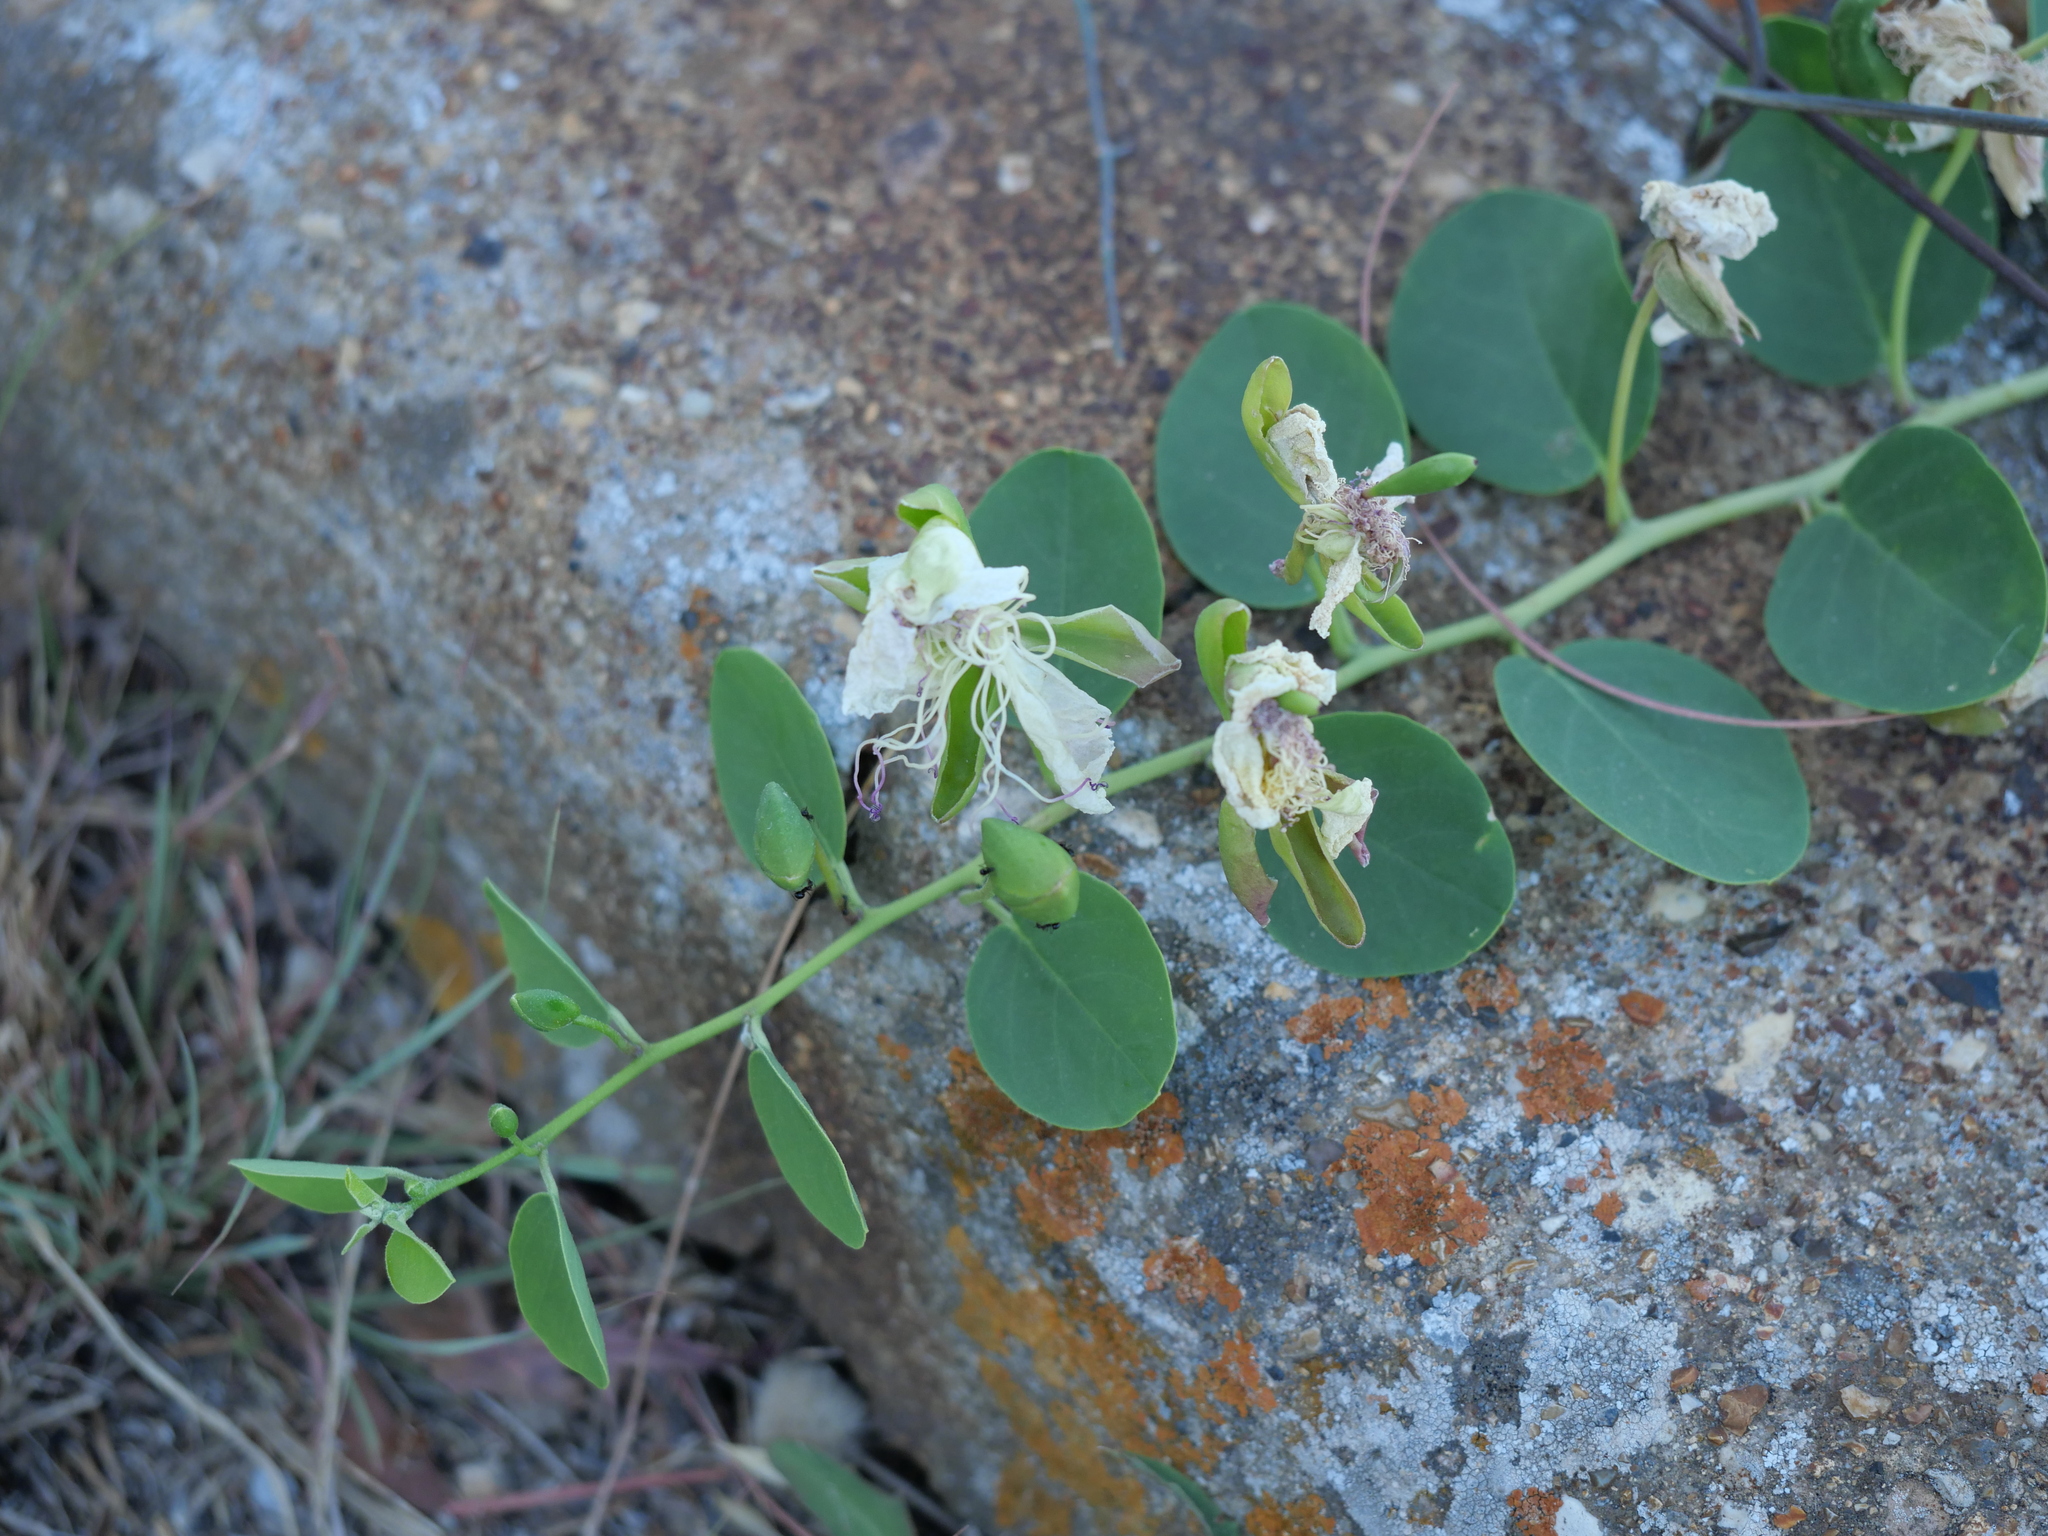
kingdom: Plantae
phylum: Tracheophyta
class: Magnoliopsida
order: Brassicales
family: Capparaceae
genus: Capparis
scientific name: Capparis orientalis
